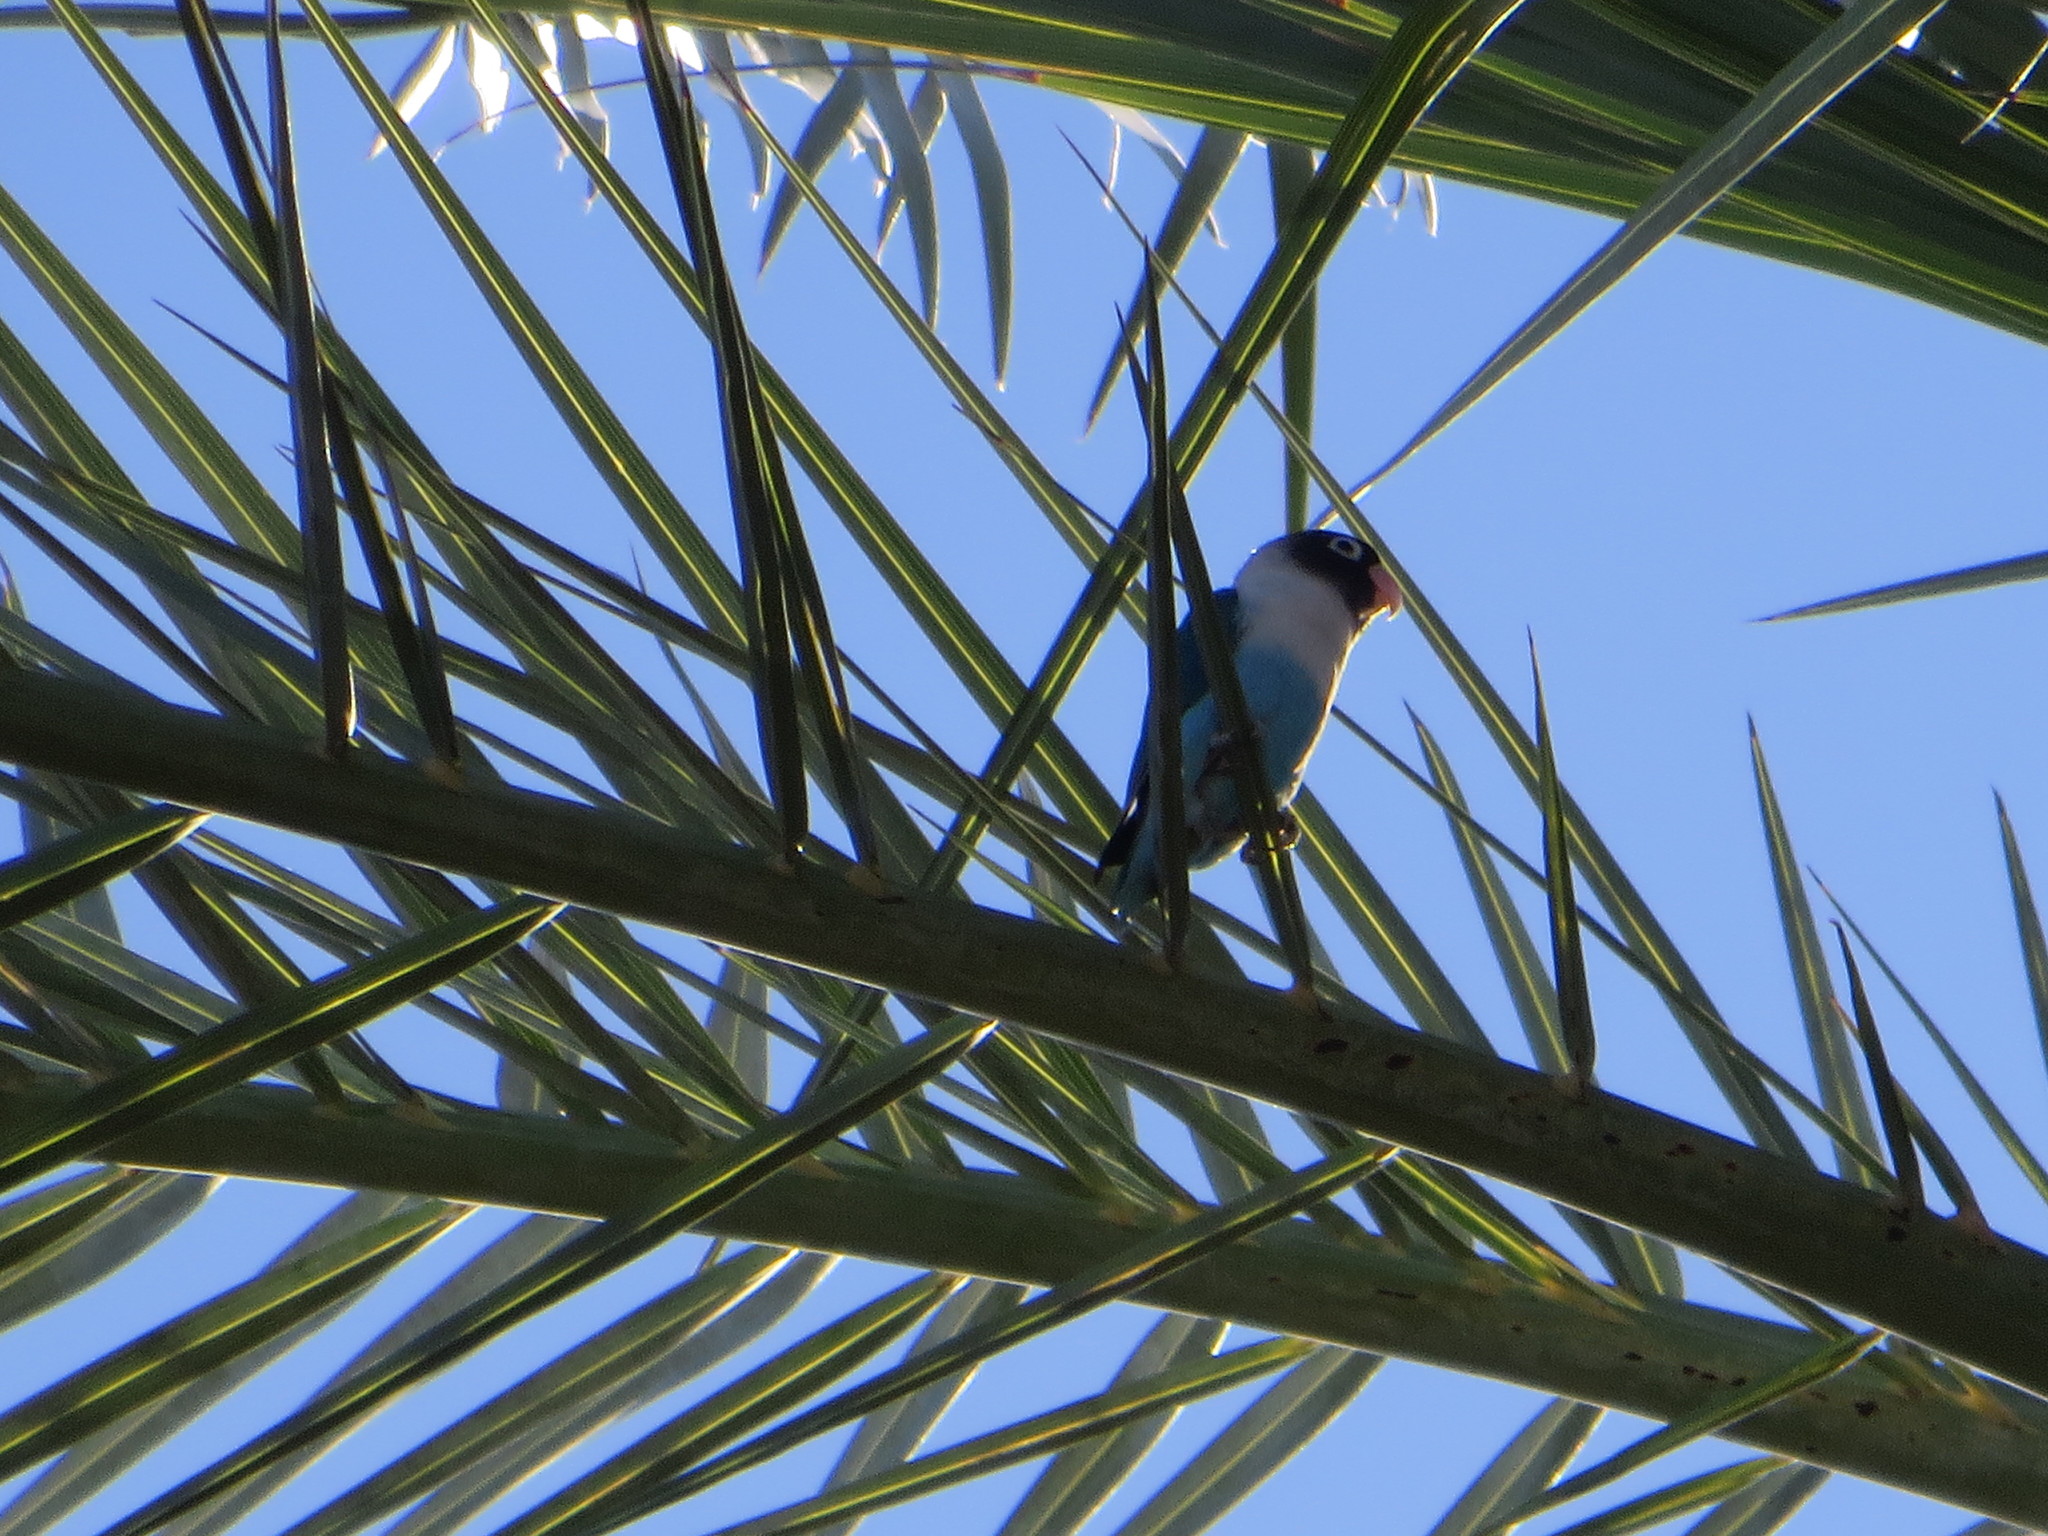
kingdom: Animalia
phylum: Chordata
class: Aves
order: Psittaciformes
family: Psittacidae
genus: Agapornis
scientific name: Agapornis personatus
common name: Yellow-collared lovebird
